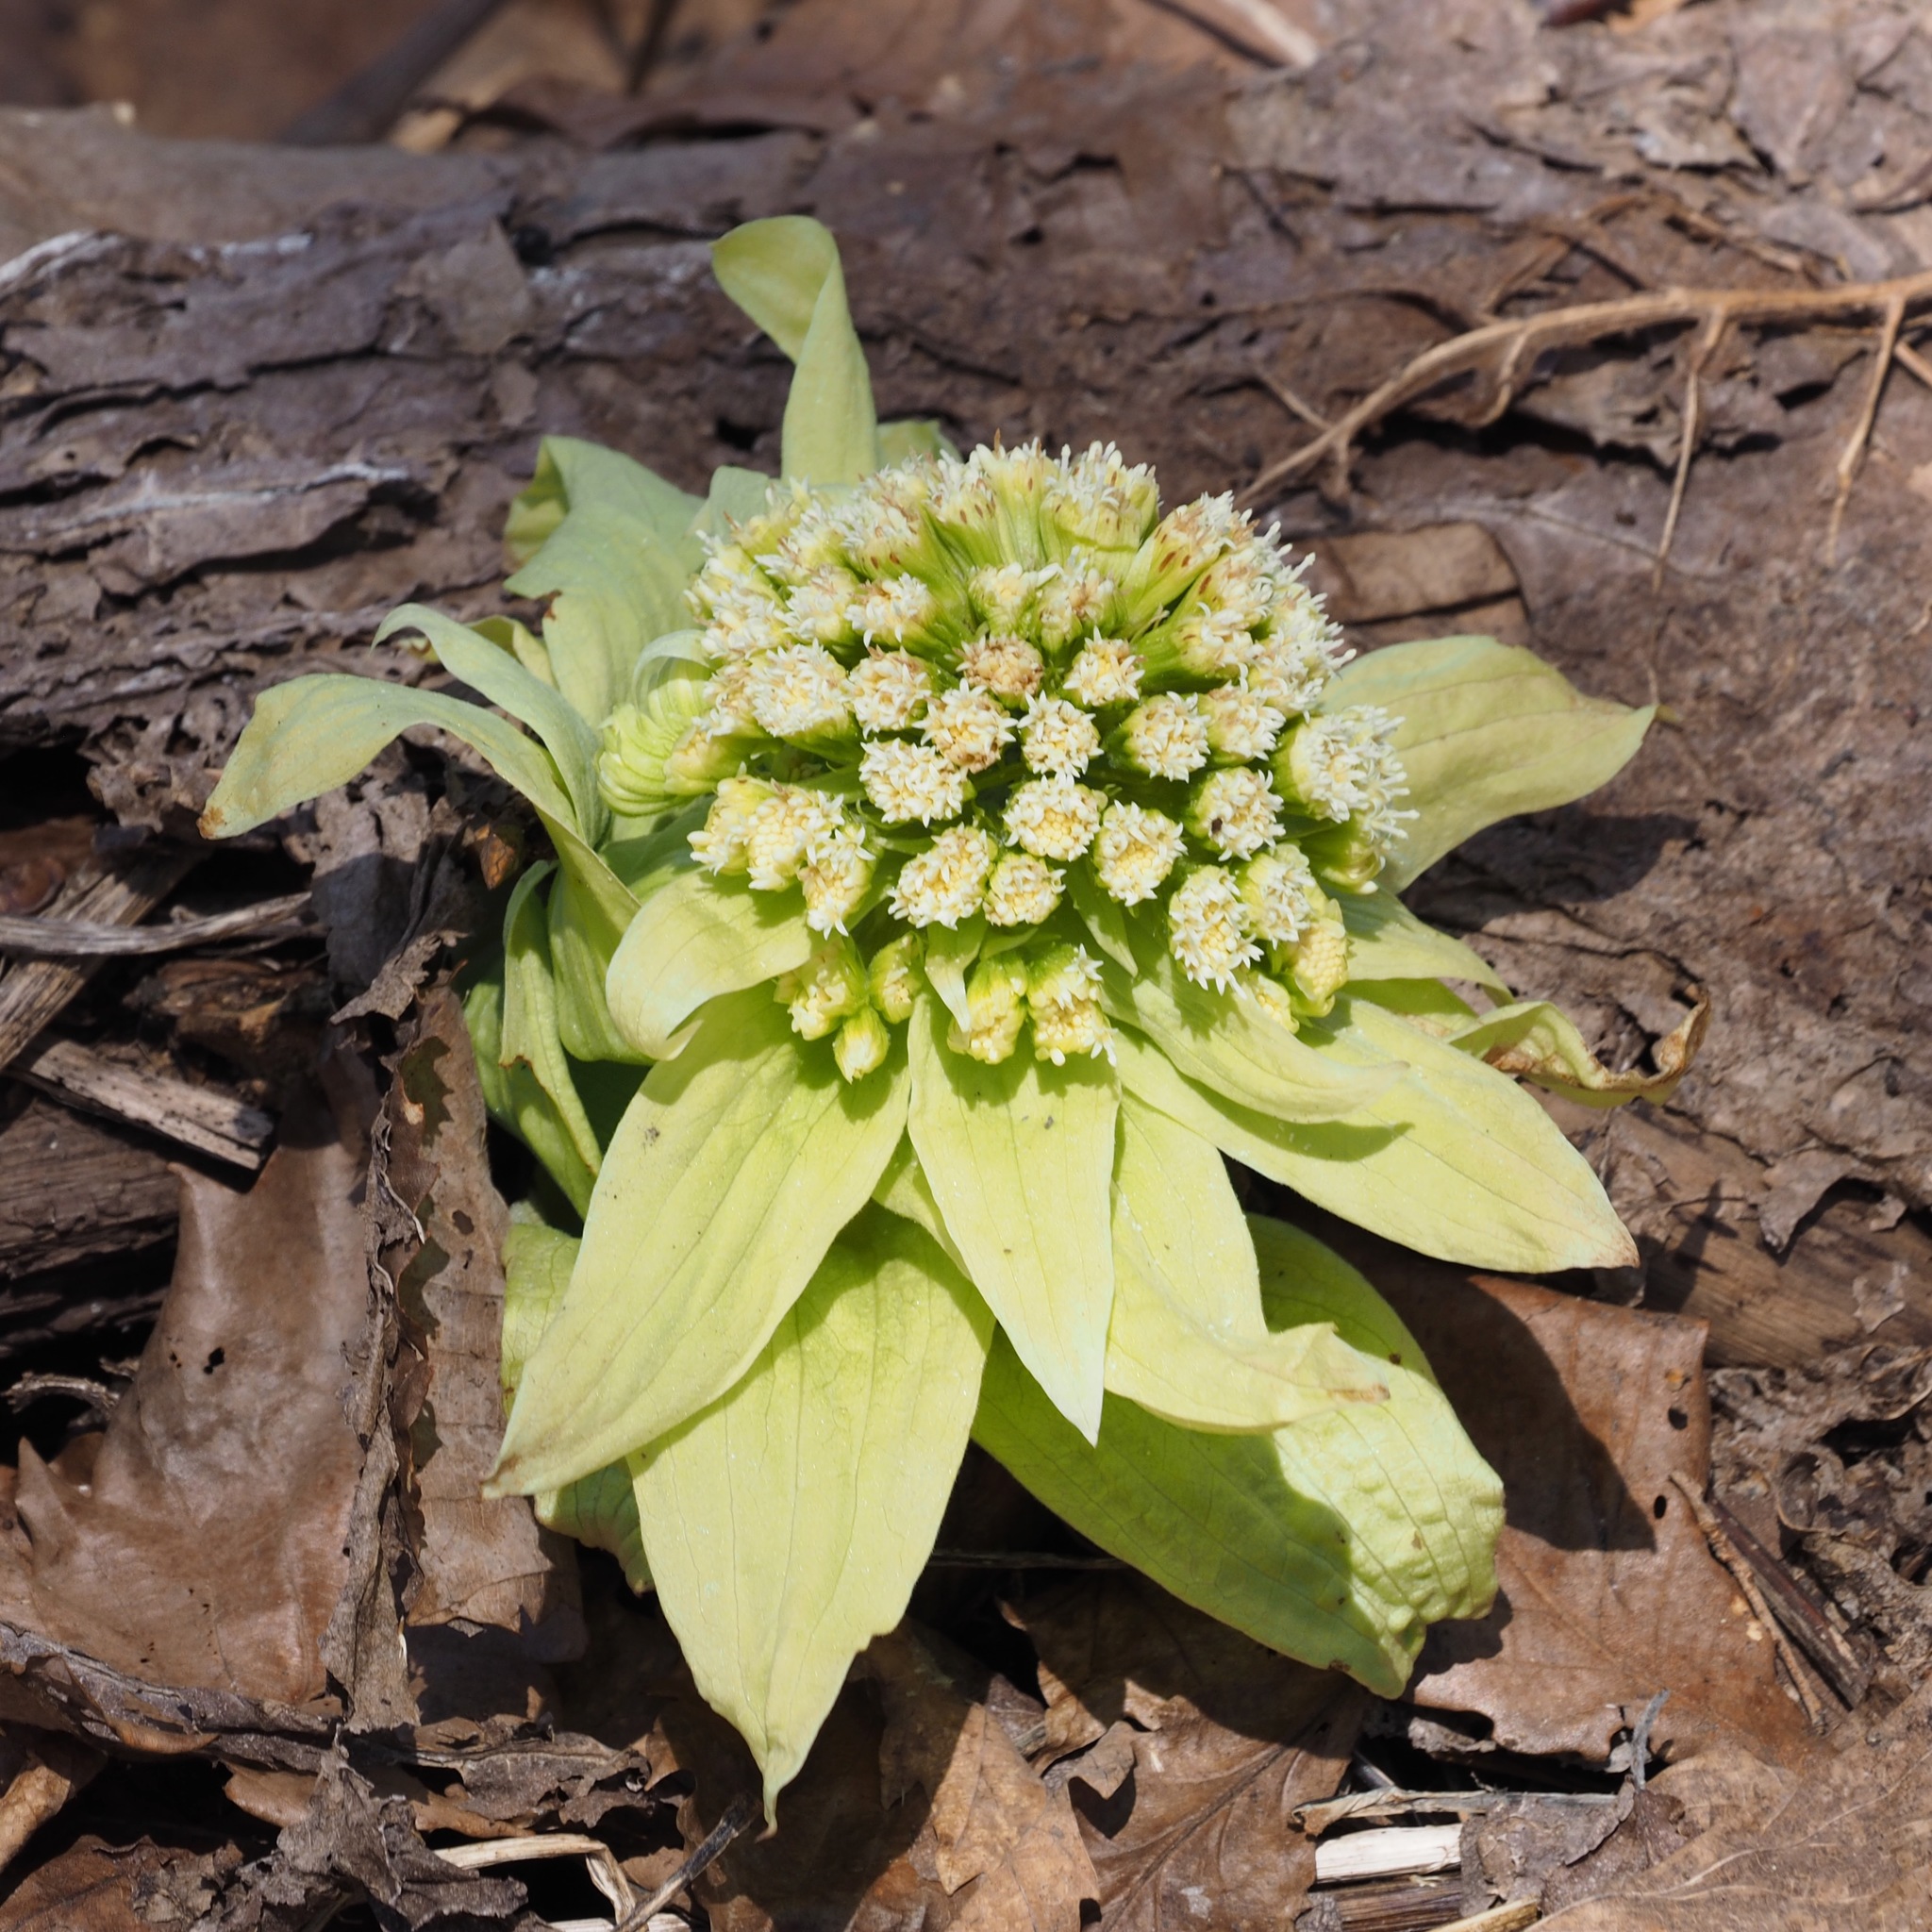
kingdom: Plantae
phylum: Tracheophyta
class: Magnoliopsida
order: Asterales
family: Asteraceae
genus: Petasites
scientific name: Petasites japonicus
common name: Giant butterbur
